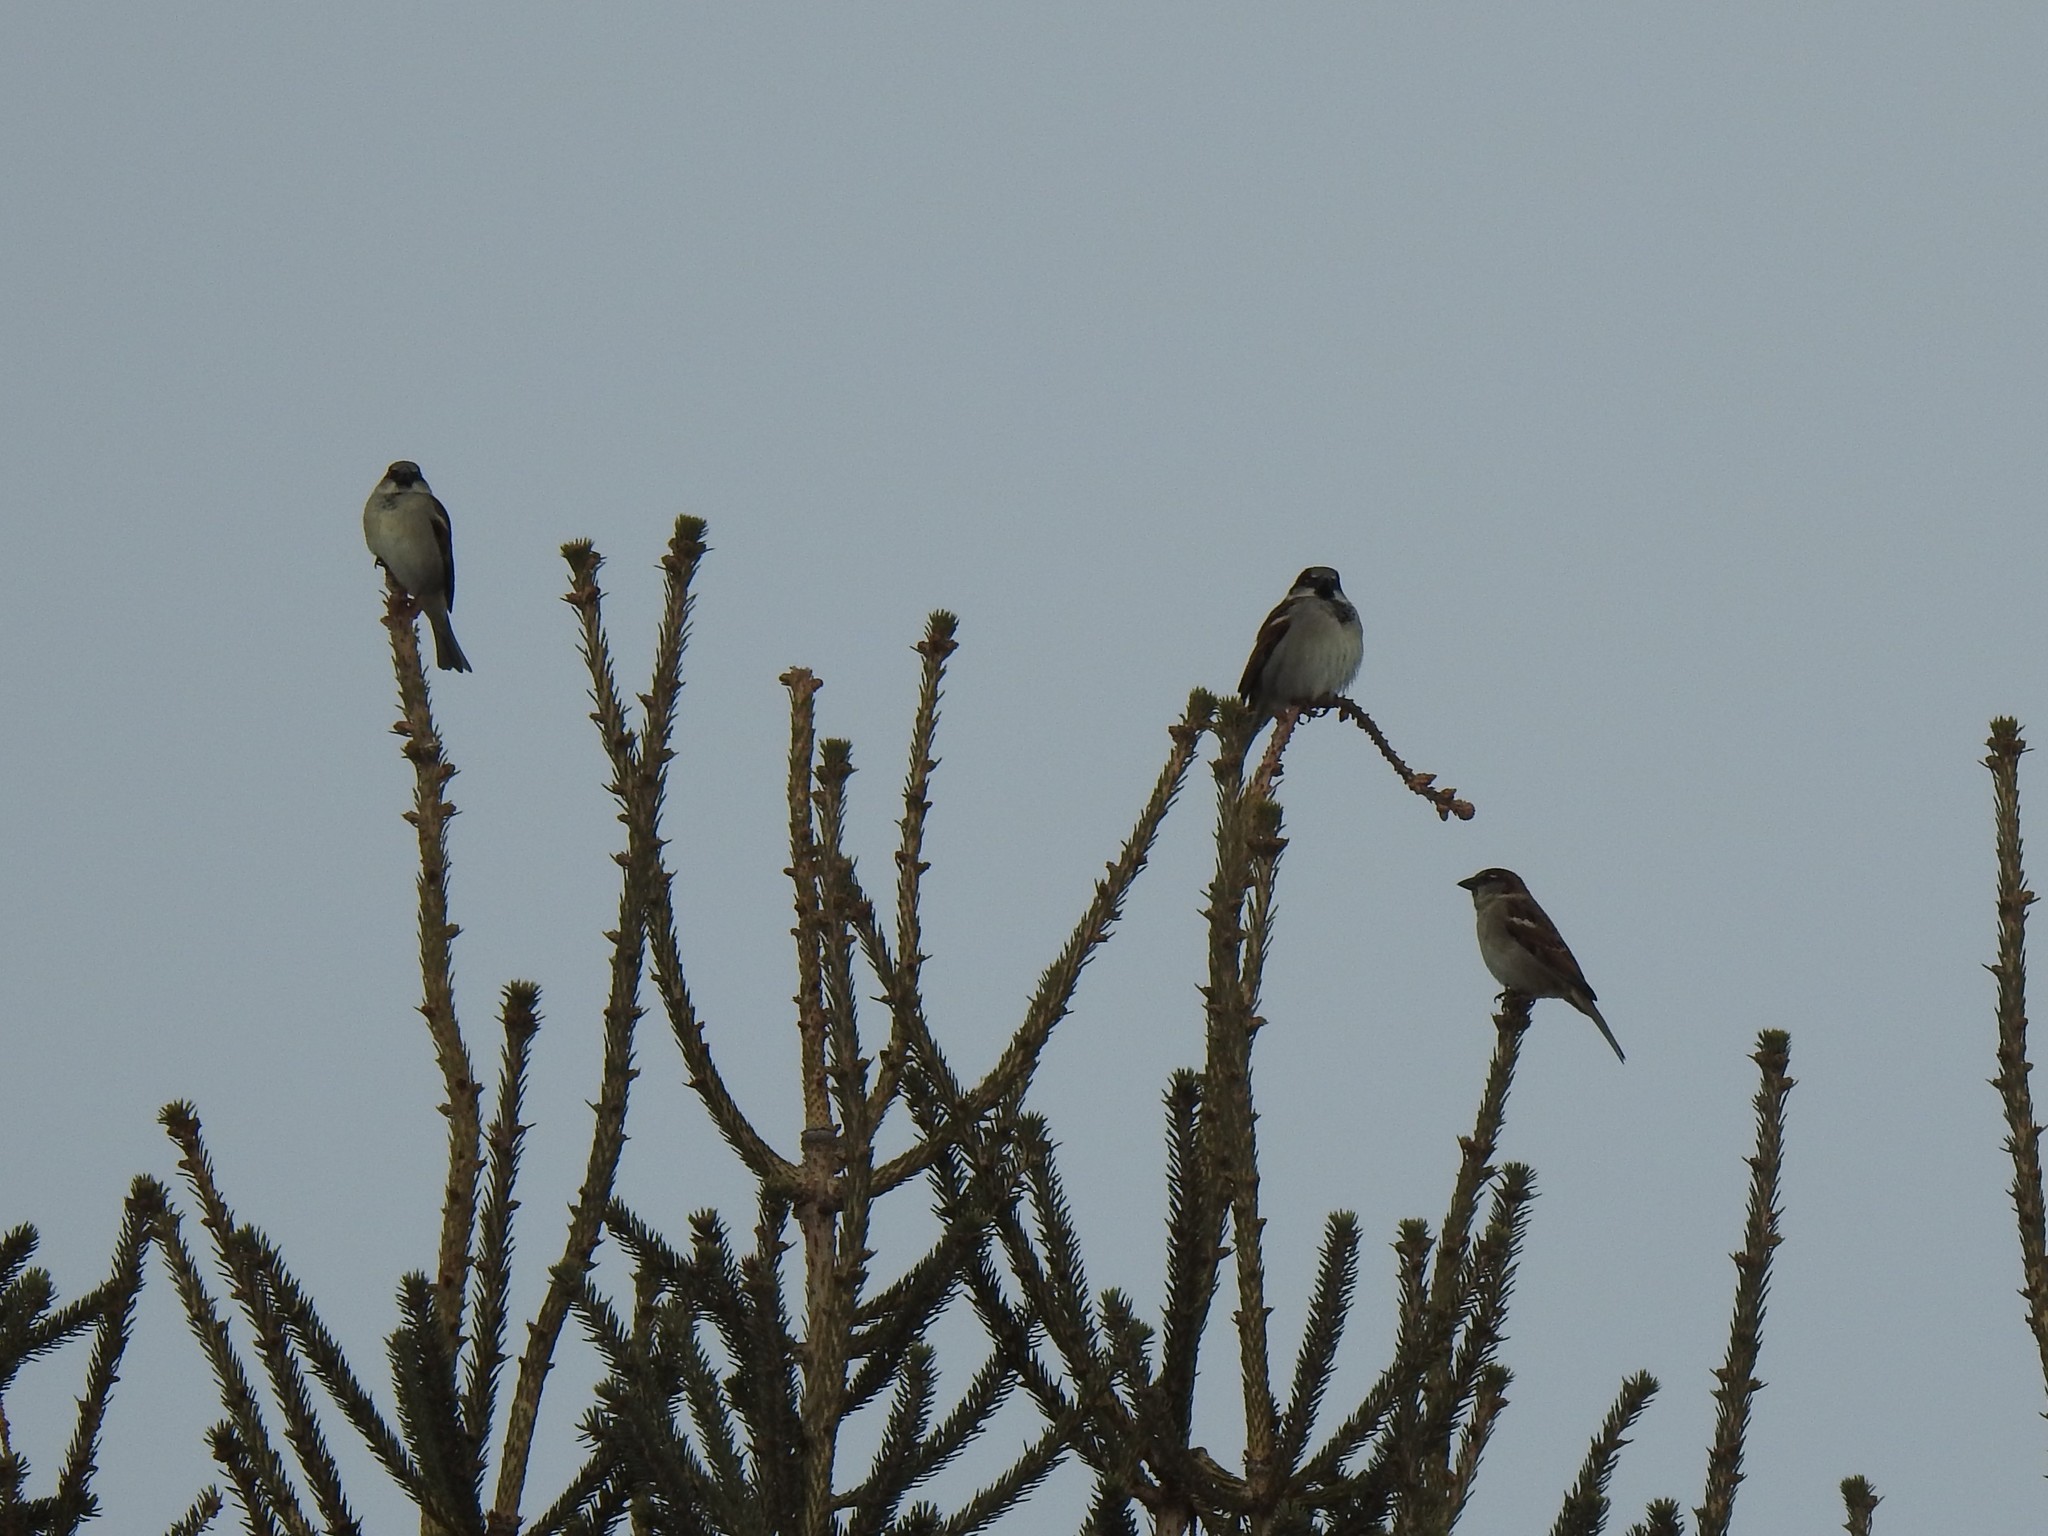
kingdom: Animalia
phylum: Chordata
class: Aves
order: Passeriformes
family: Passeridae
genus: Passer
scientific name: Passer domesticus
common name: House sparrow
